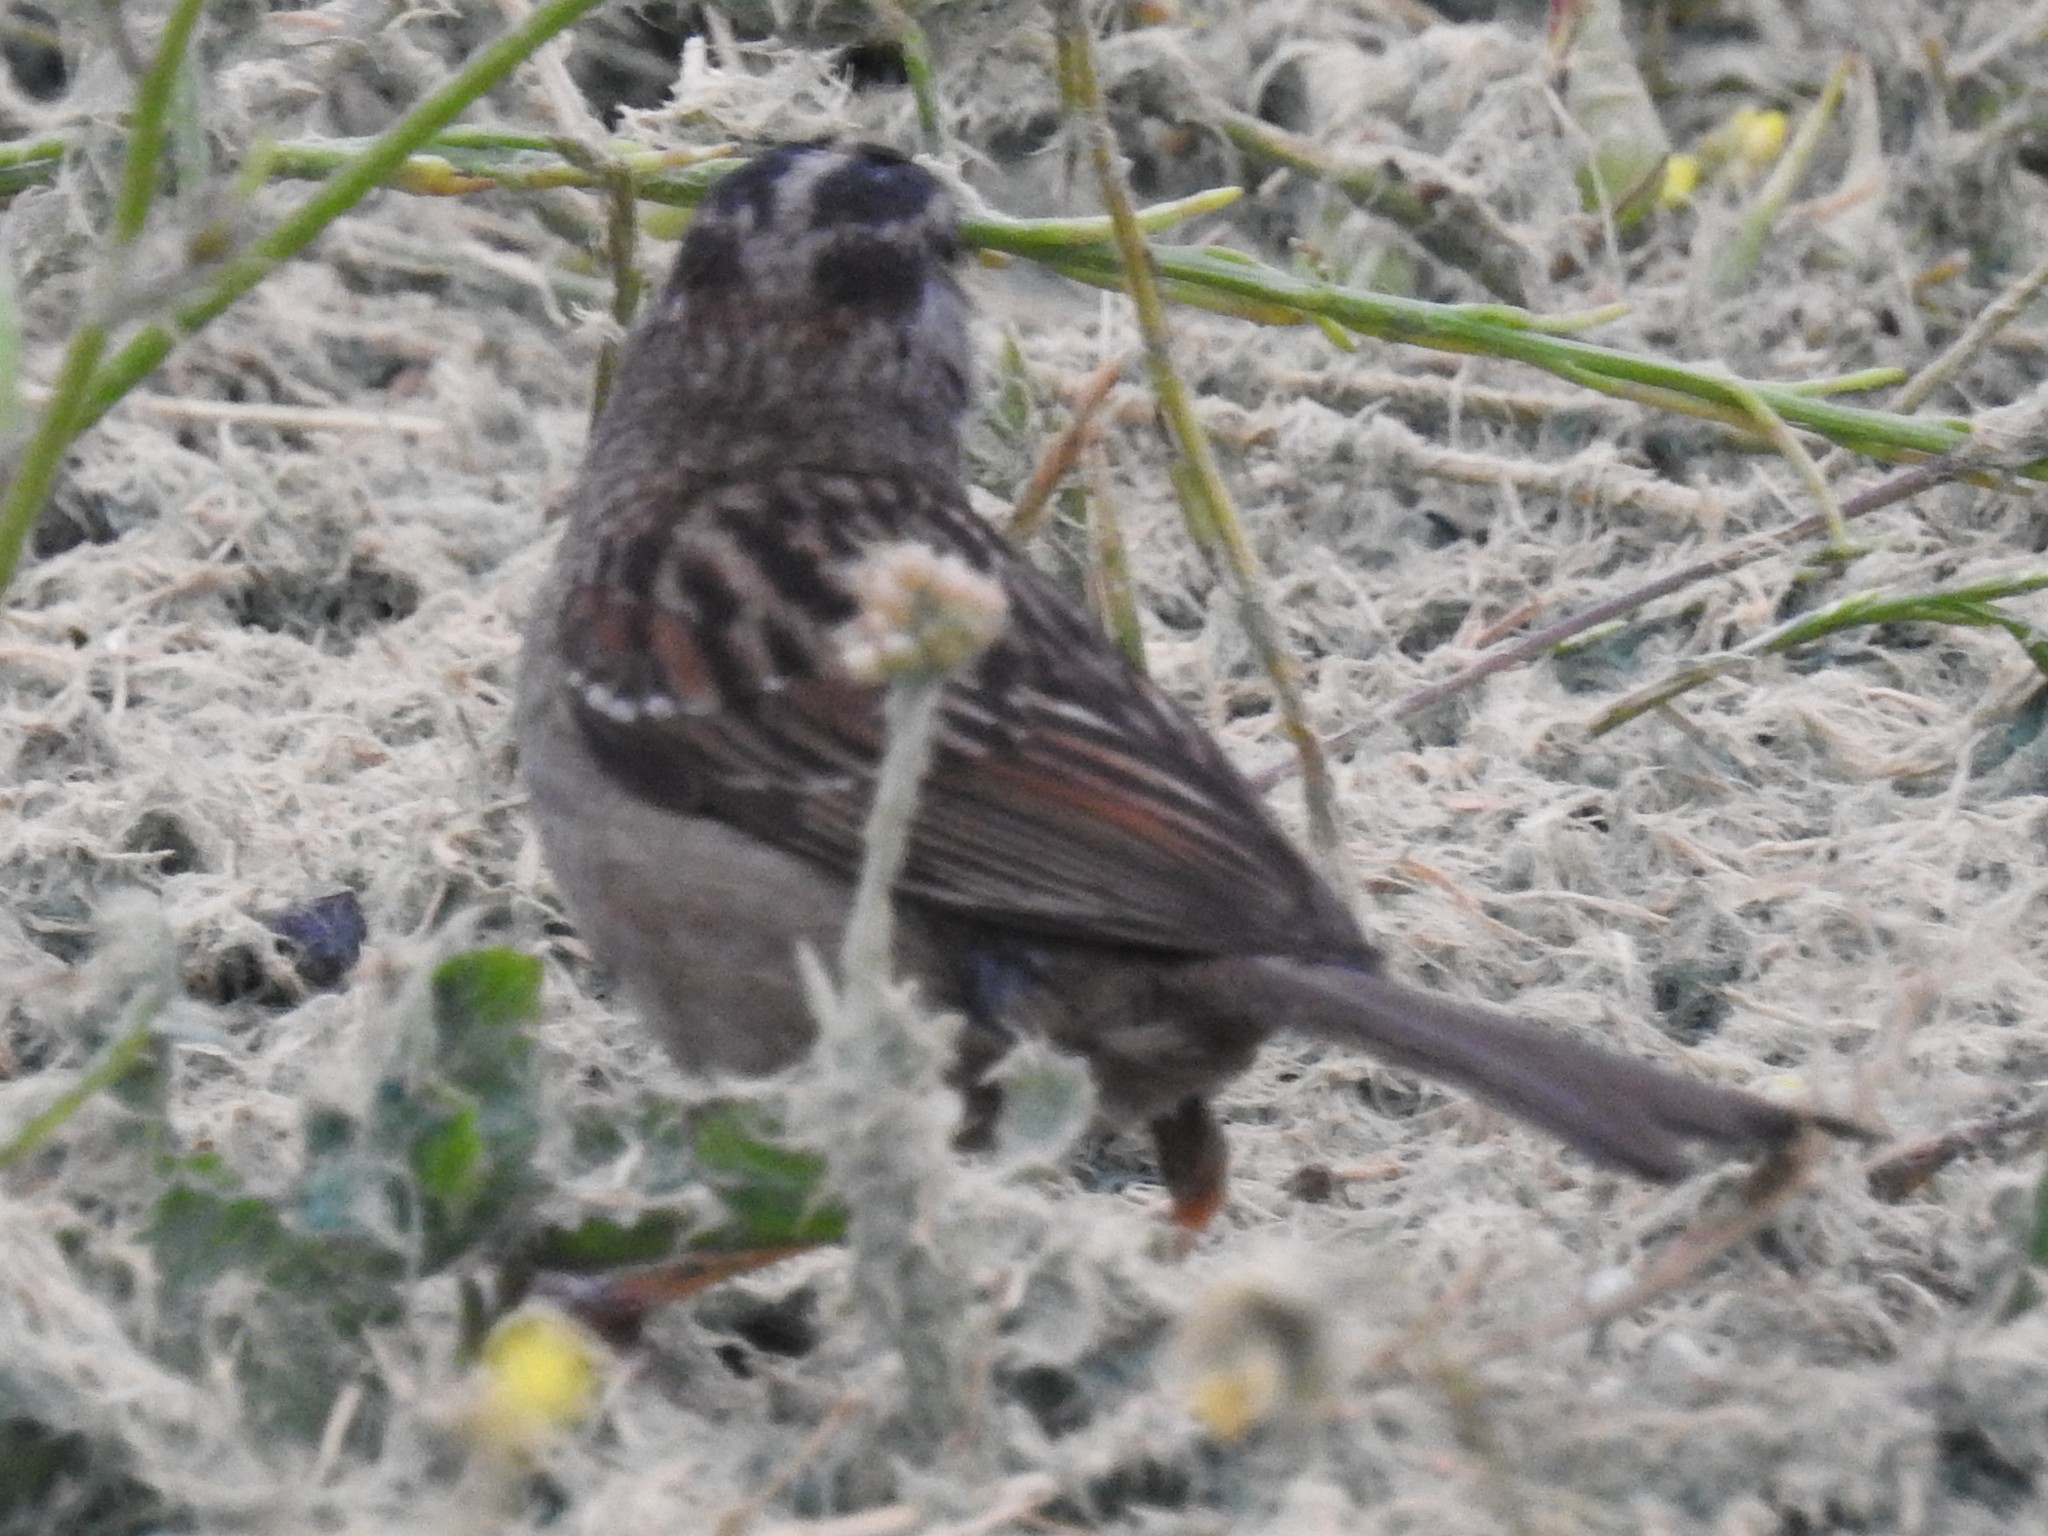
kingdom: Animalia
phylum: Chordata
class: Aves
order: Passeriformes
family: Passerellidae
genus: Zonotrichia
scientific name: Zonotrichia leucophrys
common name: White-crowned sparrow
